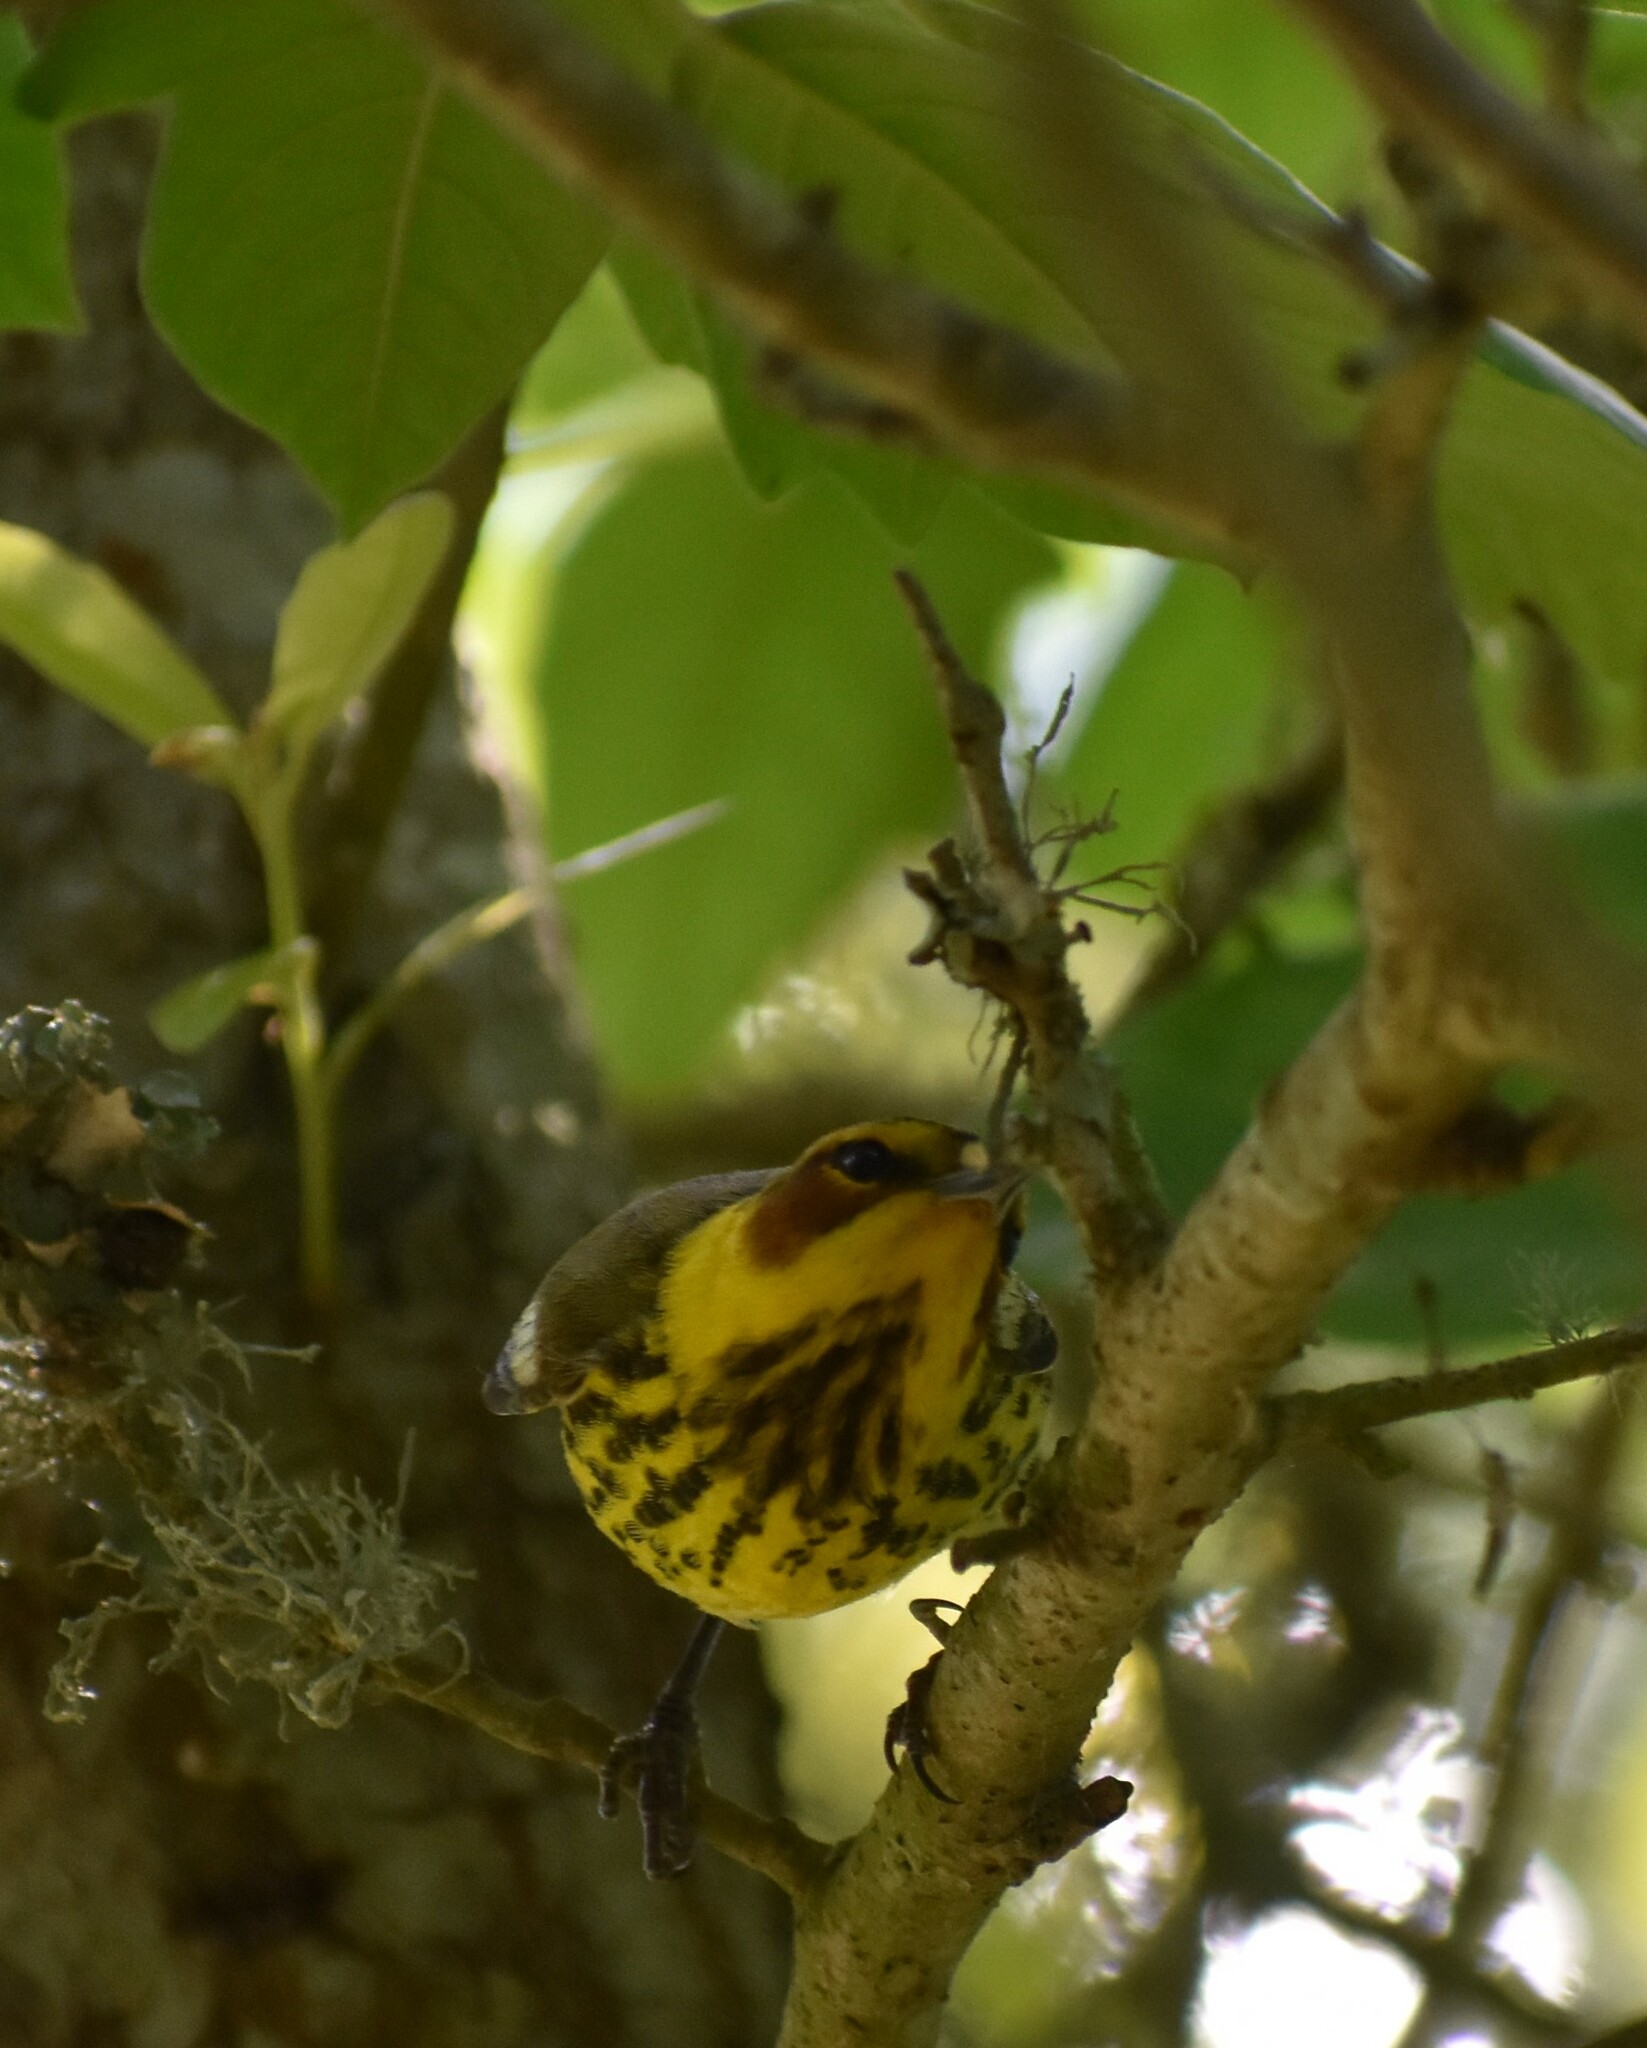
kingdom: Animalia
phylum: Chordata
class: Aves
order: Passeriformes
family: Parulidae
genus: Setophaga
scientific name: Setophaga tigrina
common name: Cape may warbler
